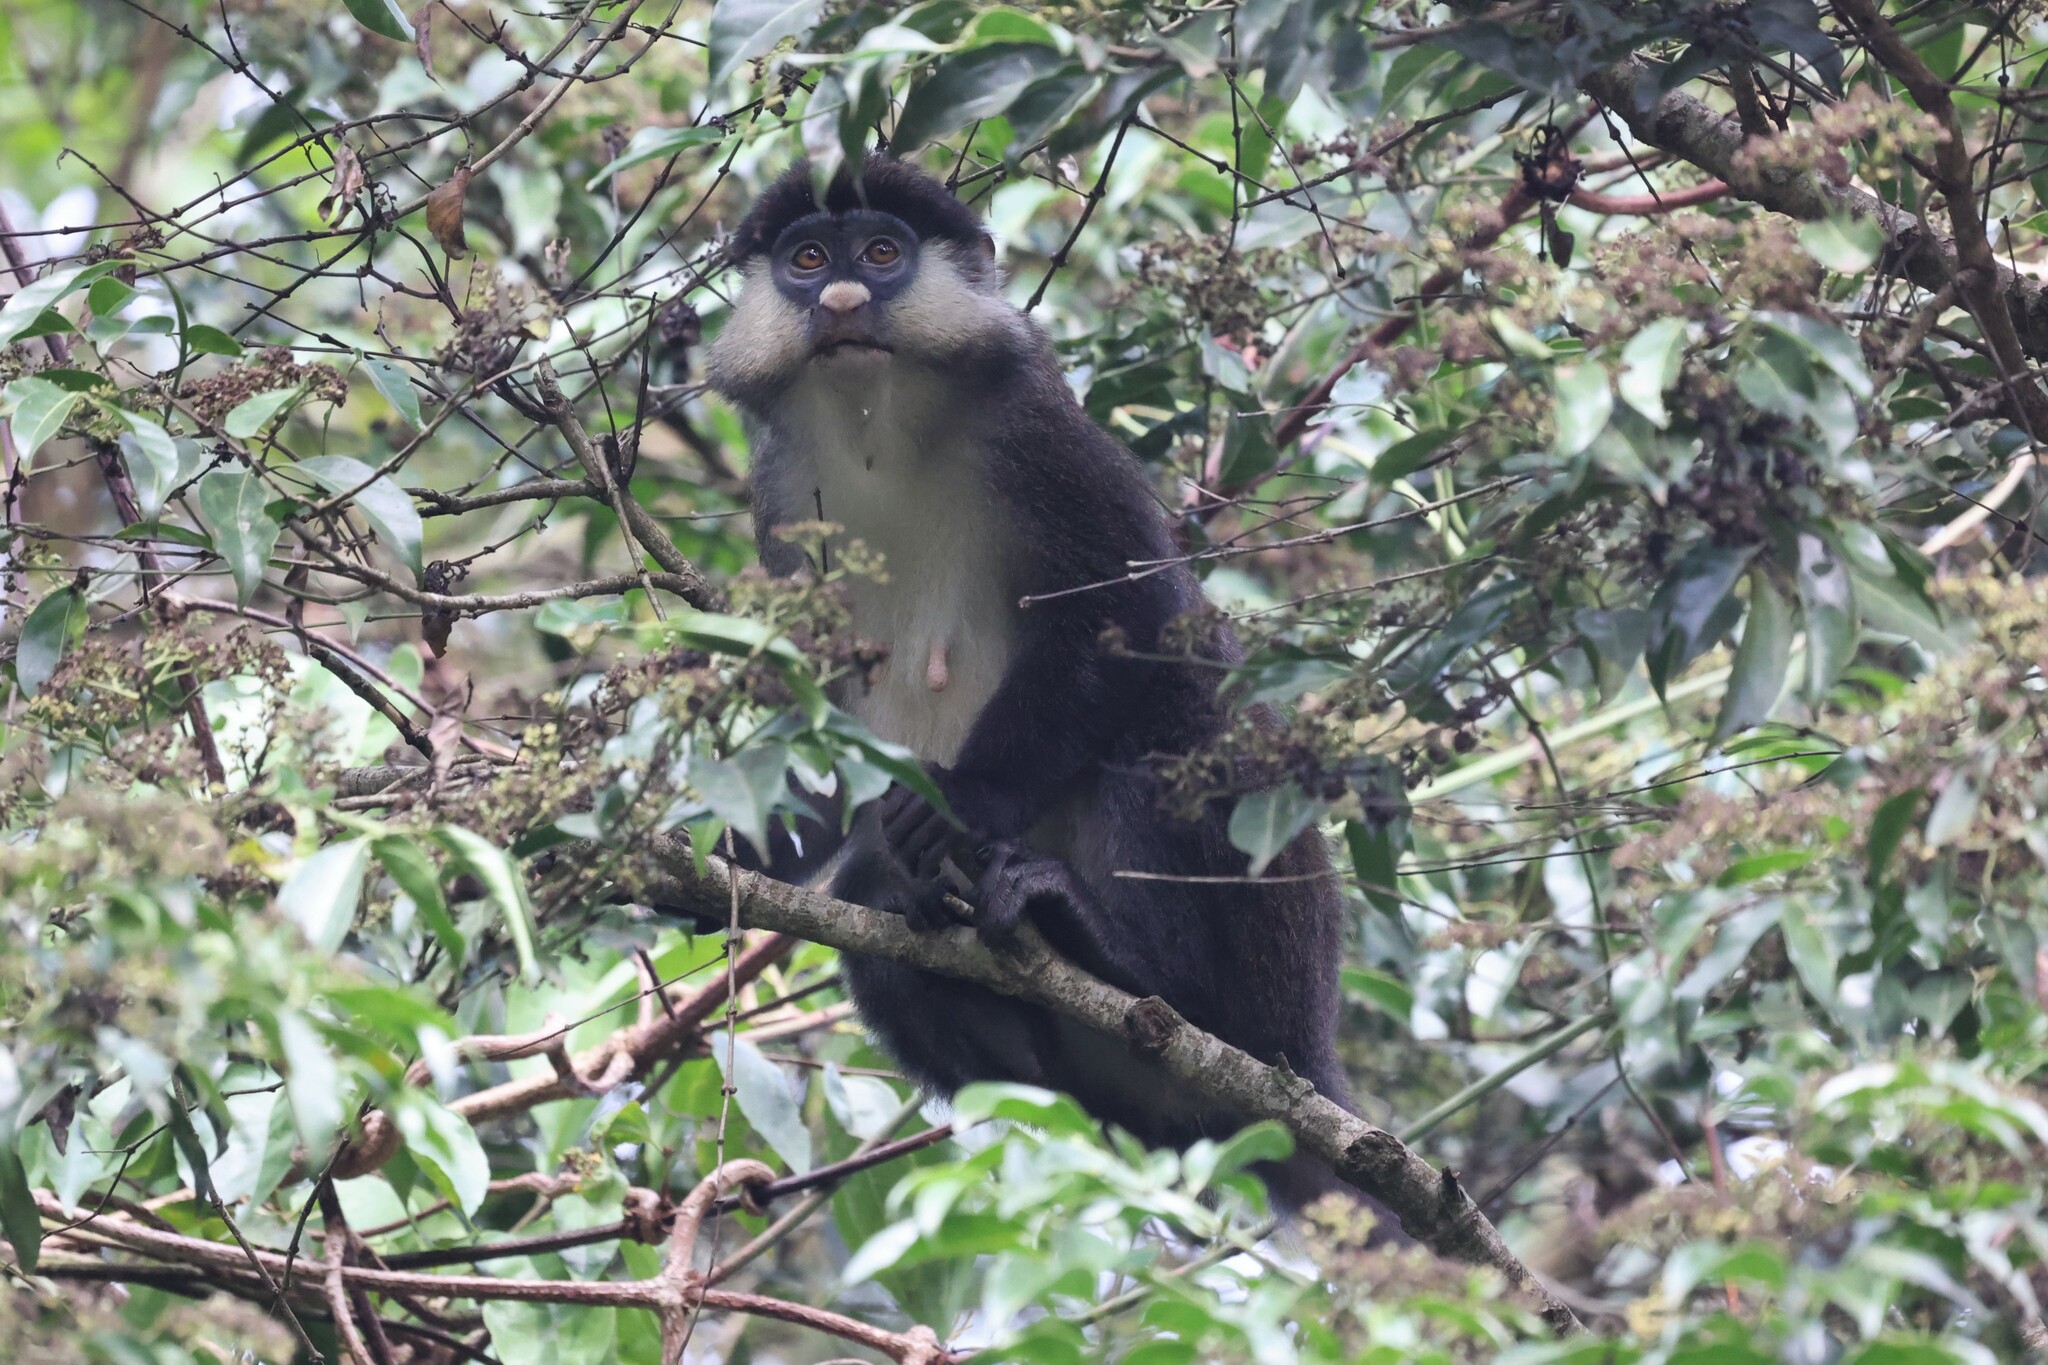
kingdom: Animalia
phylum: Chordata
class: Mammalia
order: Primates
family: Cercopithecidae
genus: Cercopithecus
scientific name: Cercopithecus ascanius
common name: Red-tailed monkey
